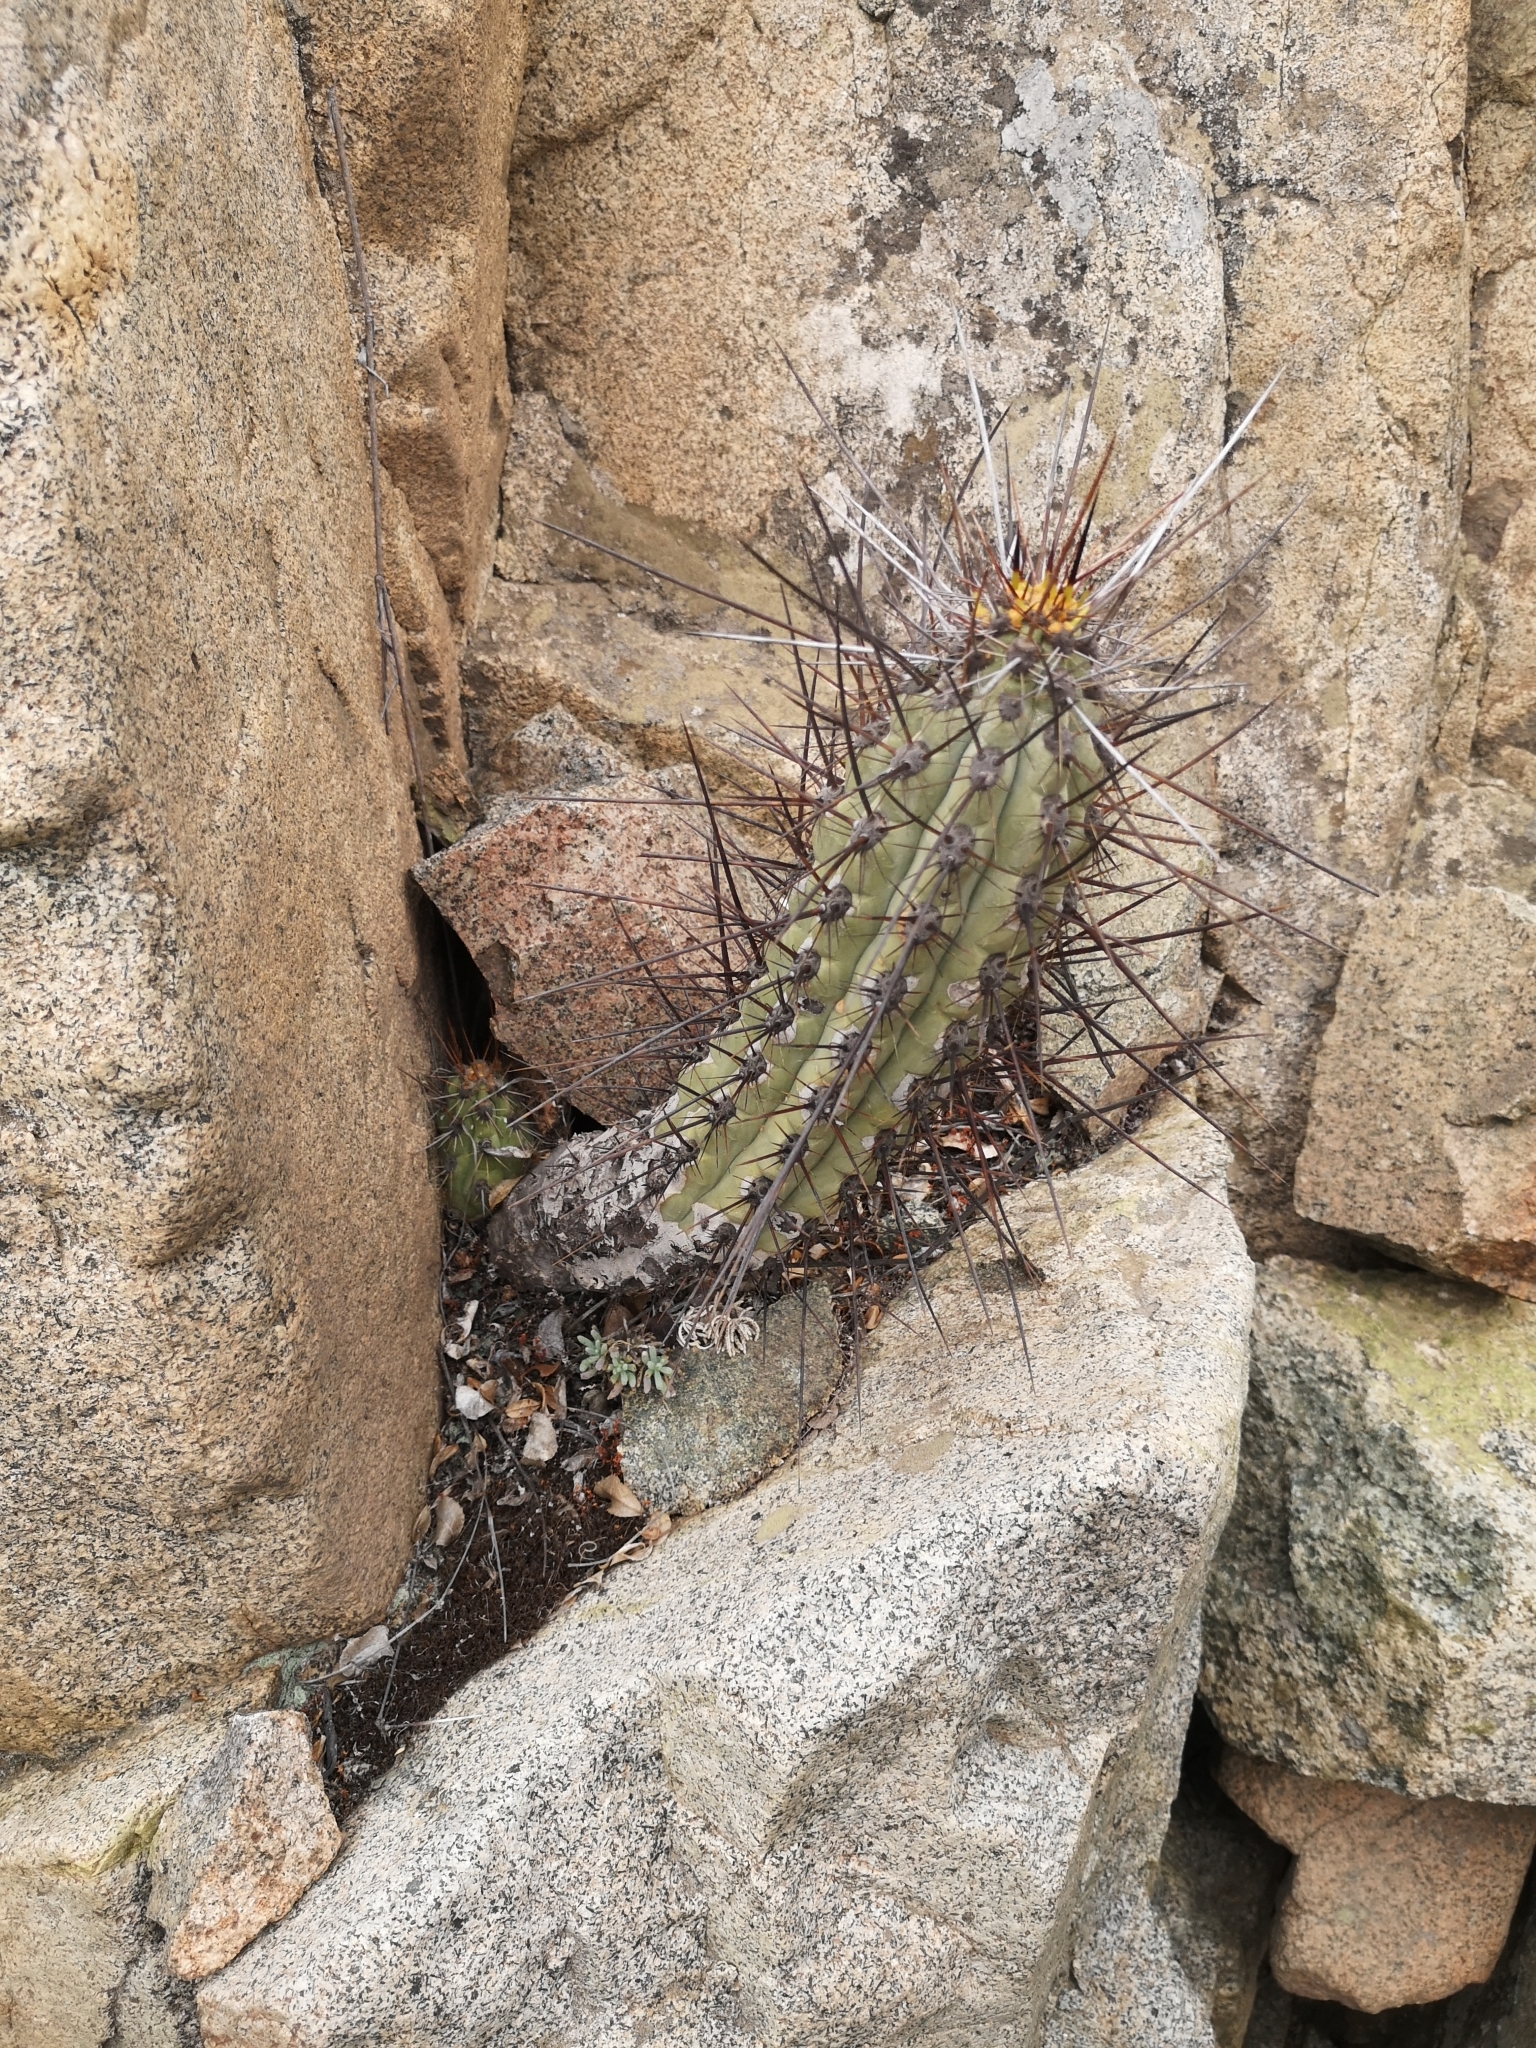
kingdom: Plantae
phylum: Tracheophyta
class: Magnoliopsida
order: Caryophyllales
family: Cactaceae
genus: Leucostele
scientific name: Leucostele deserticola
